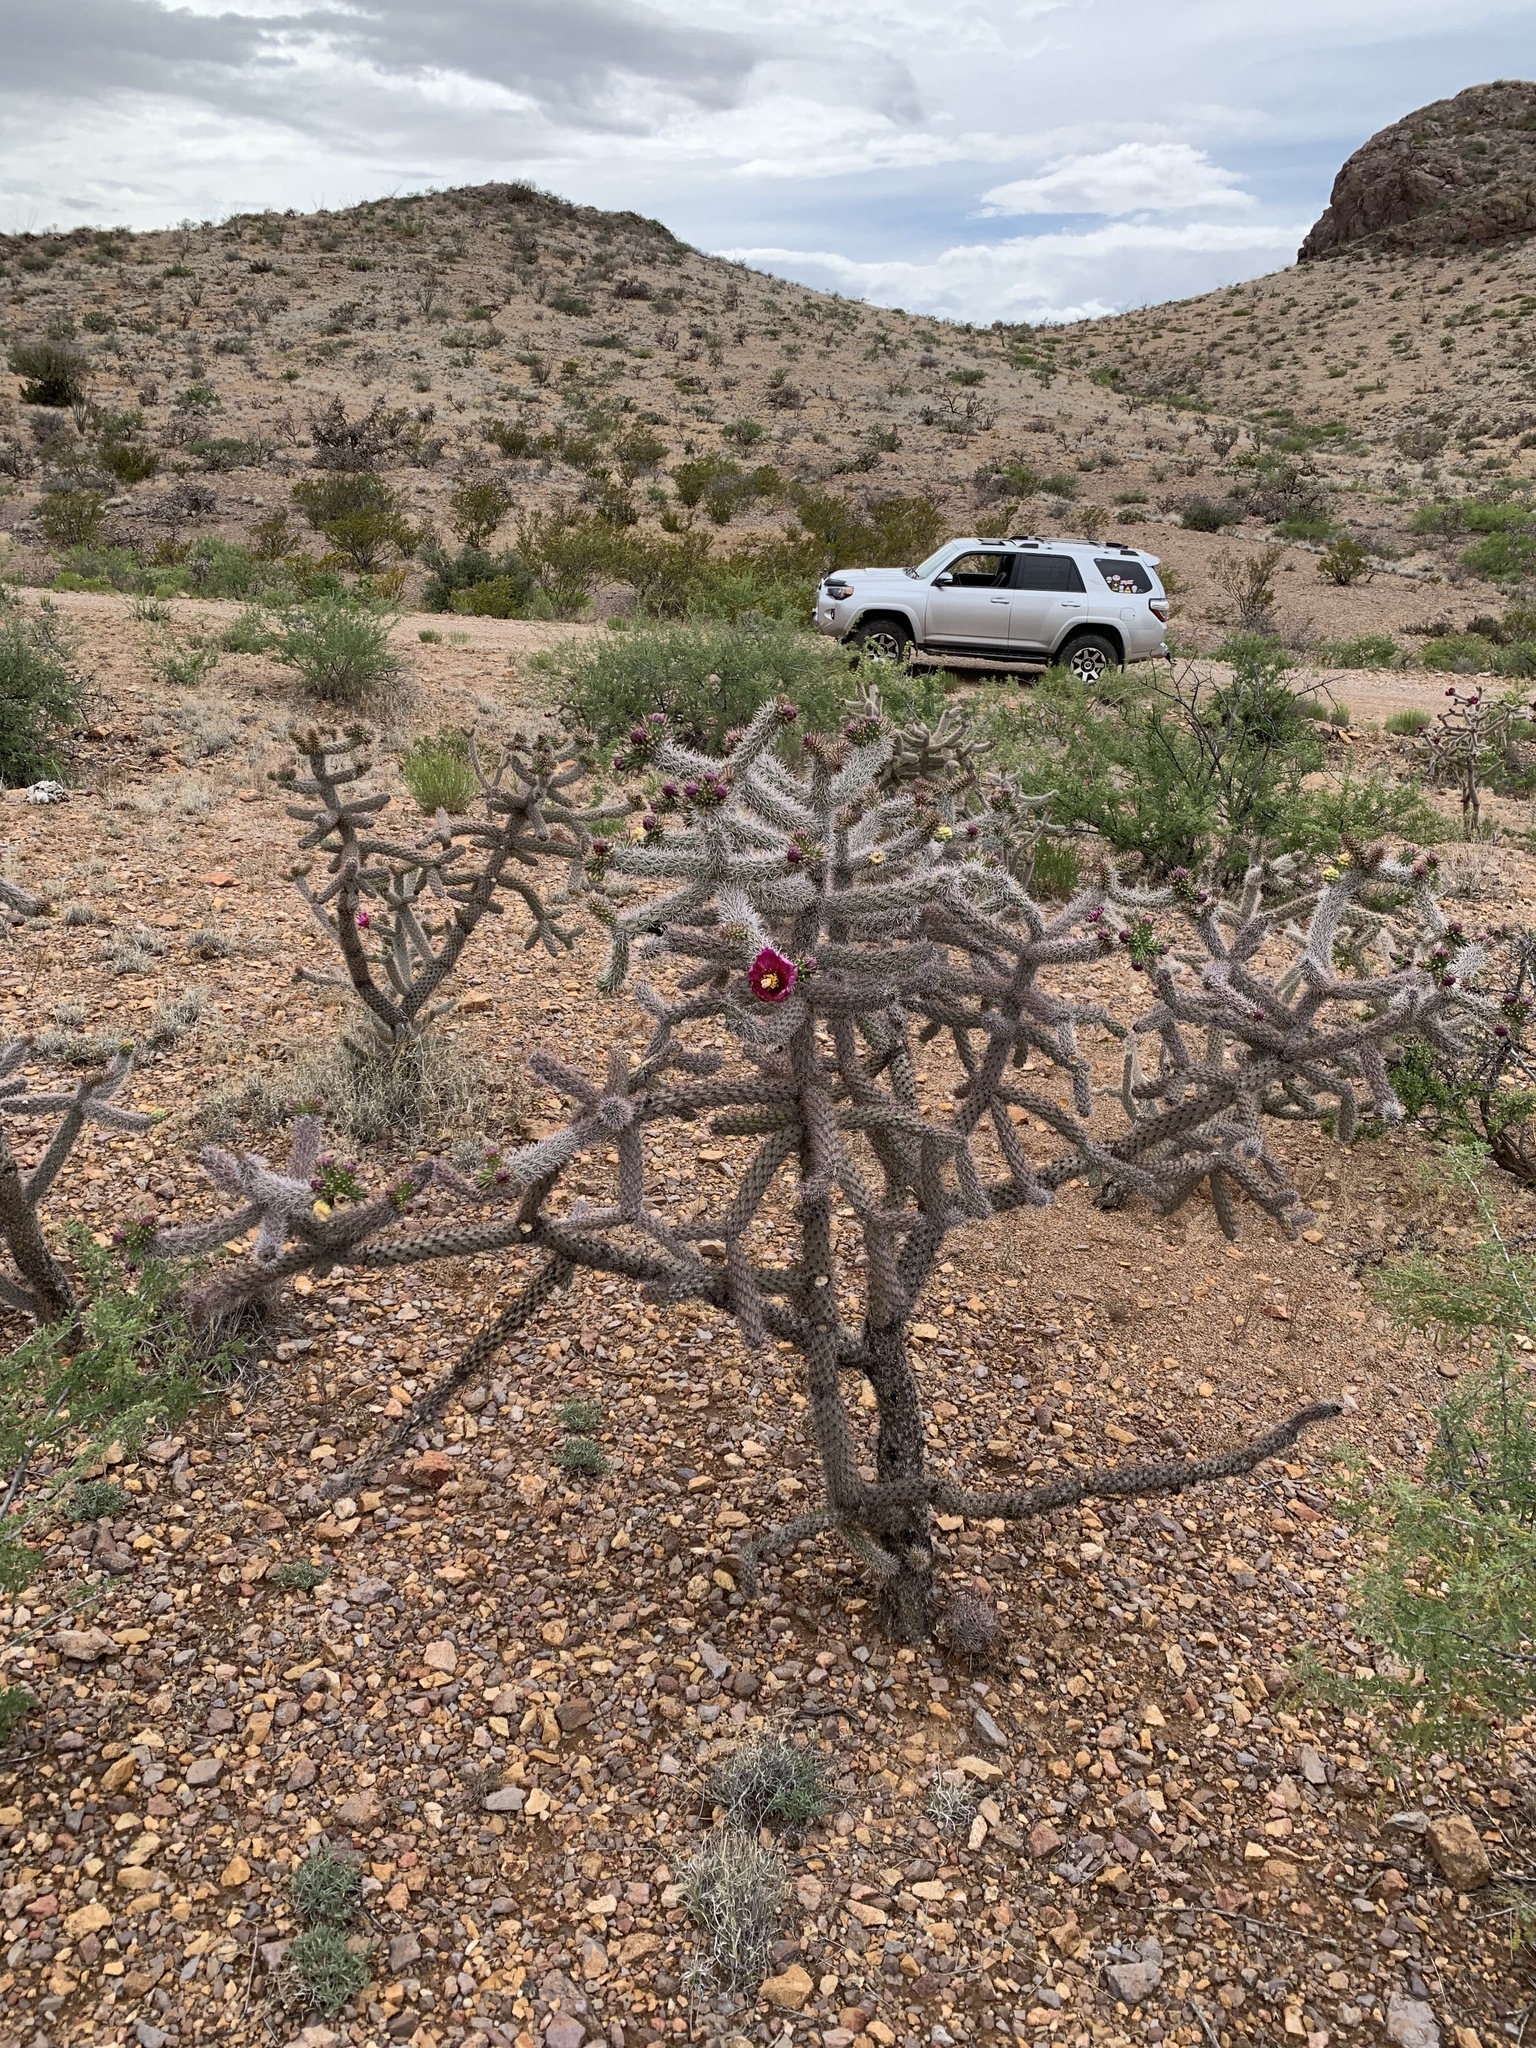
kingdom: Plantae
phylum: Tracheophyta
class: Magnoliopsida
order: Caryophyllales
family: Cactaceae
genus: Cylindropuntia
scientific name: Cylindropuntia imbricata
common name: Candelabrum cactus
